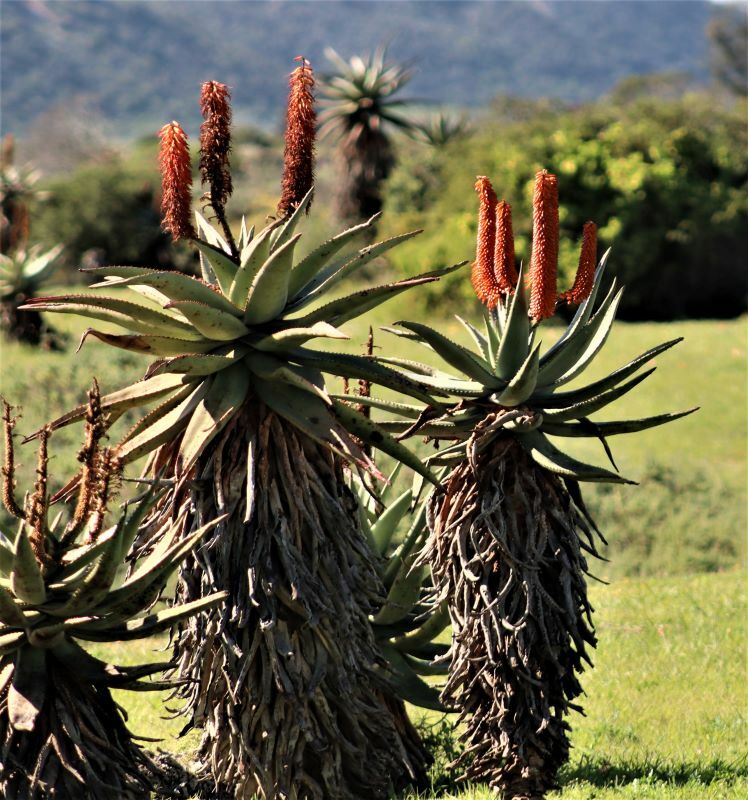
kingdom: Plantae
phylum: Tracheophyta
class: Liliopsida
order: Asparagales
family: Asphodelaceae
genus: Aloe
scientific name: Aloe ferox
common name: Bitter aloe
